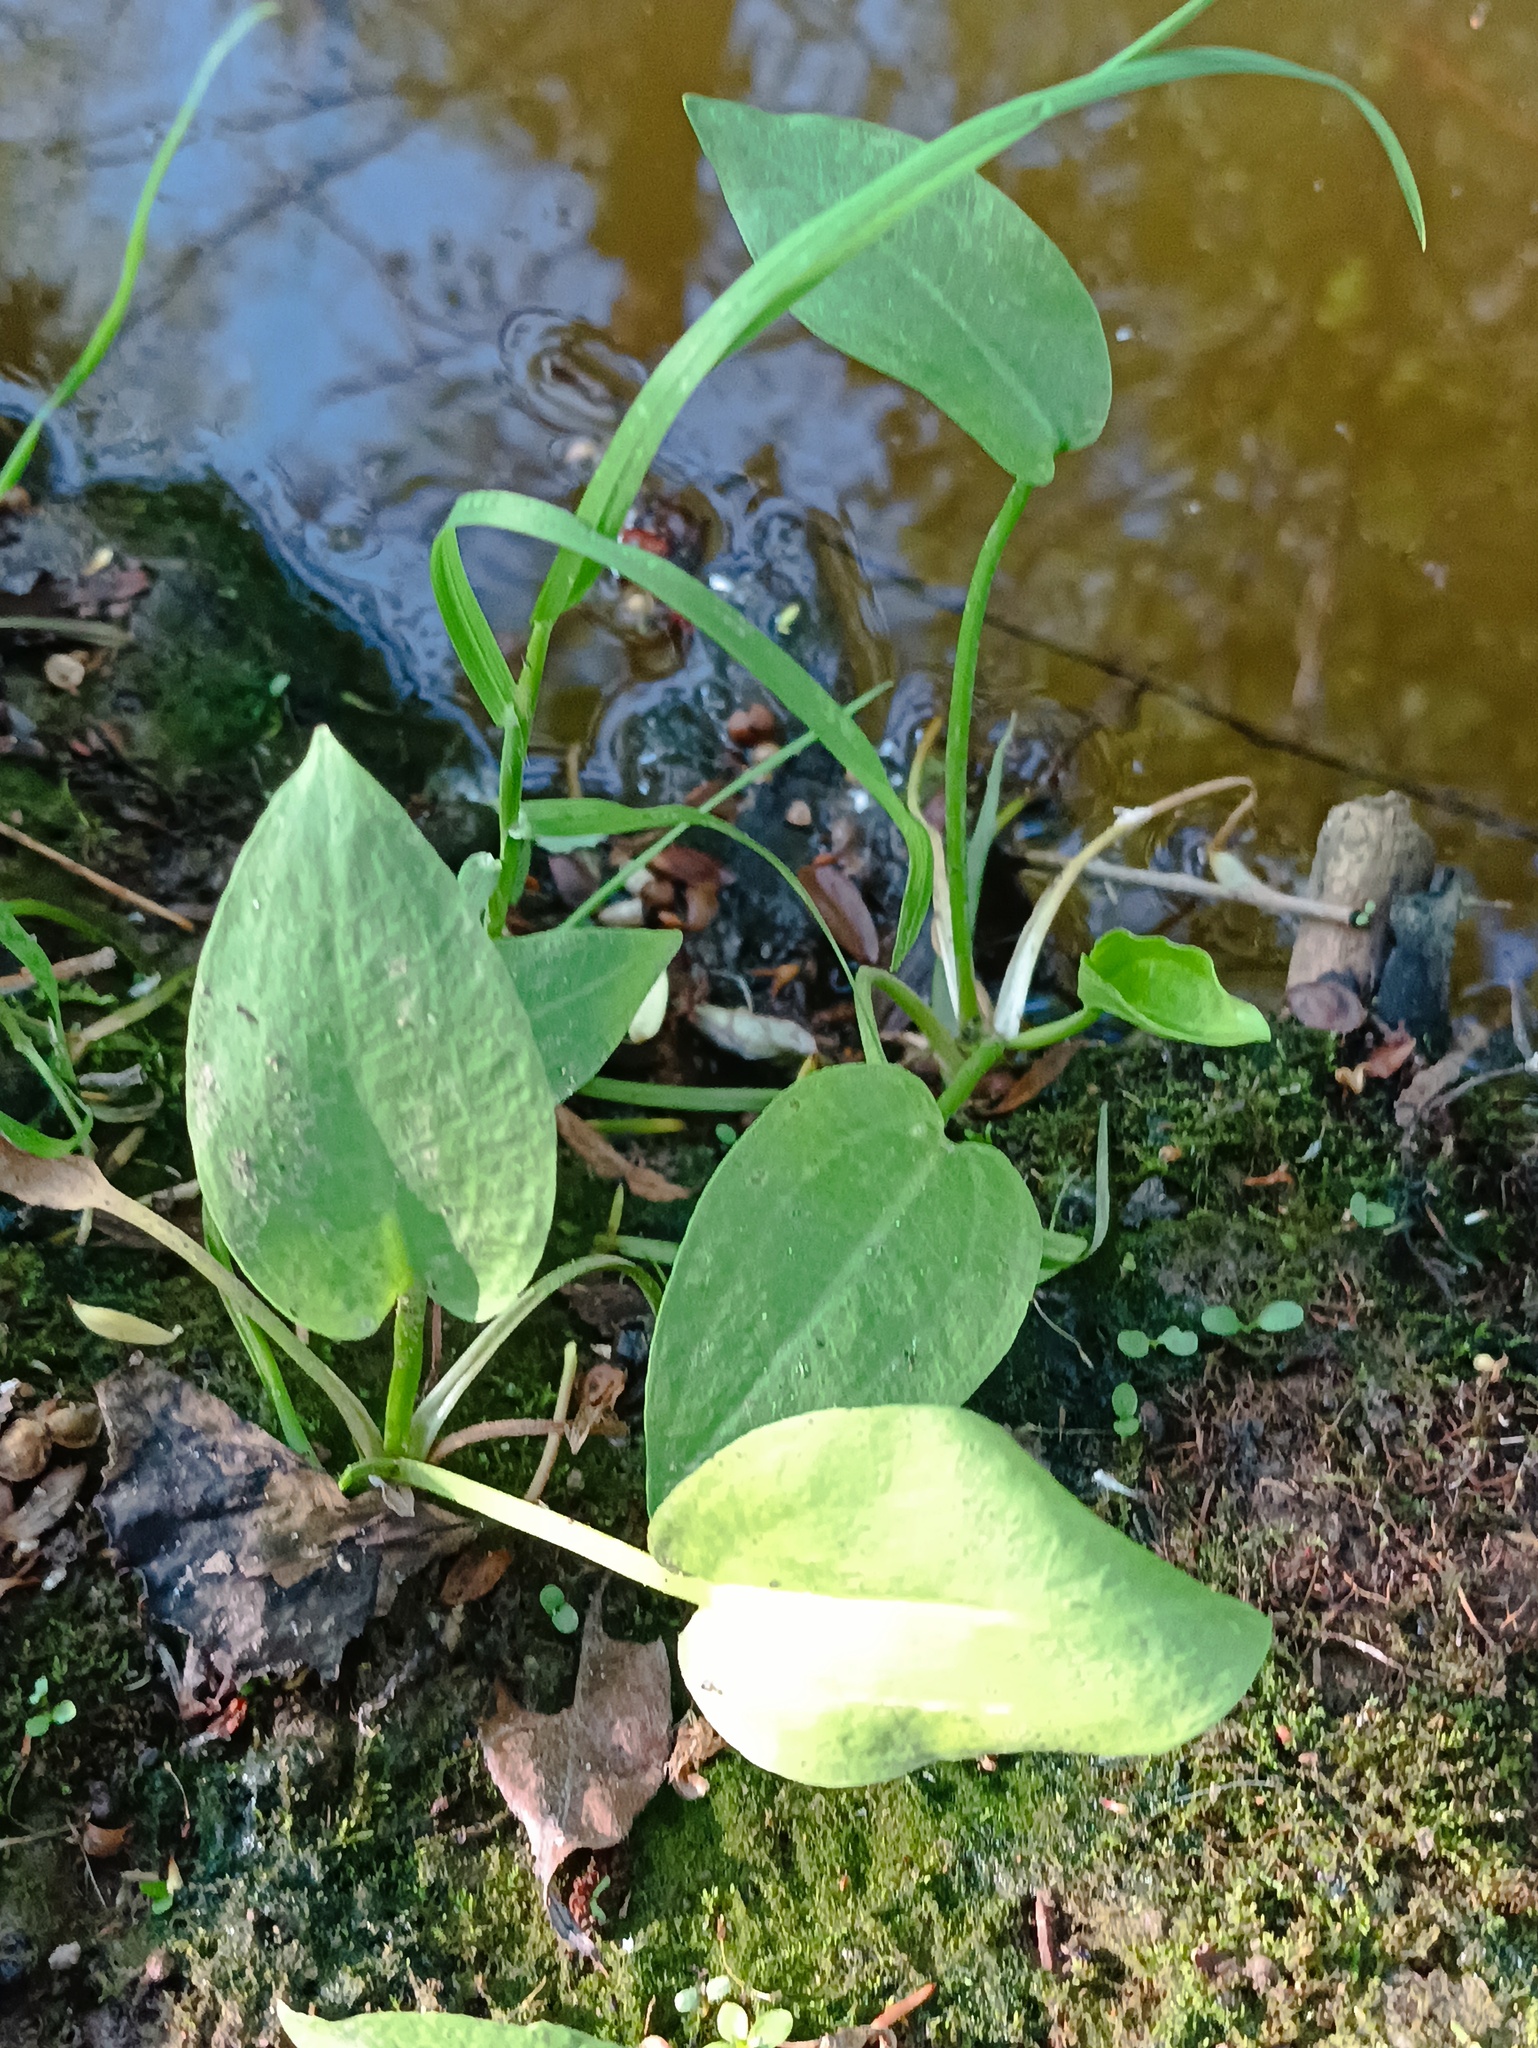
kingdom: Plantae
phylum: Tracheophyta
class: Liliopsida
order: Alismatales
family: Alismataceae
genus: Alisma
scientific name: Alisma plantago-aquatica
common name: Water-plantain
